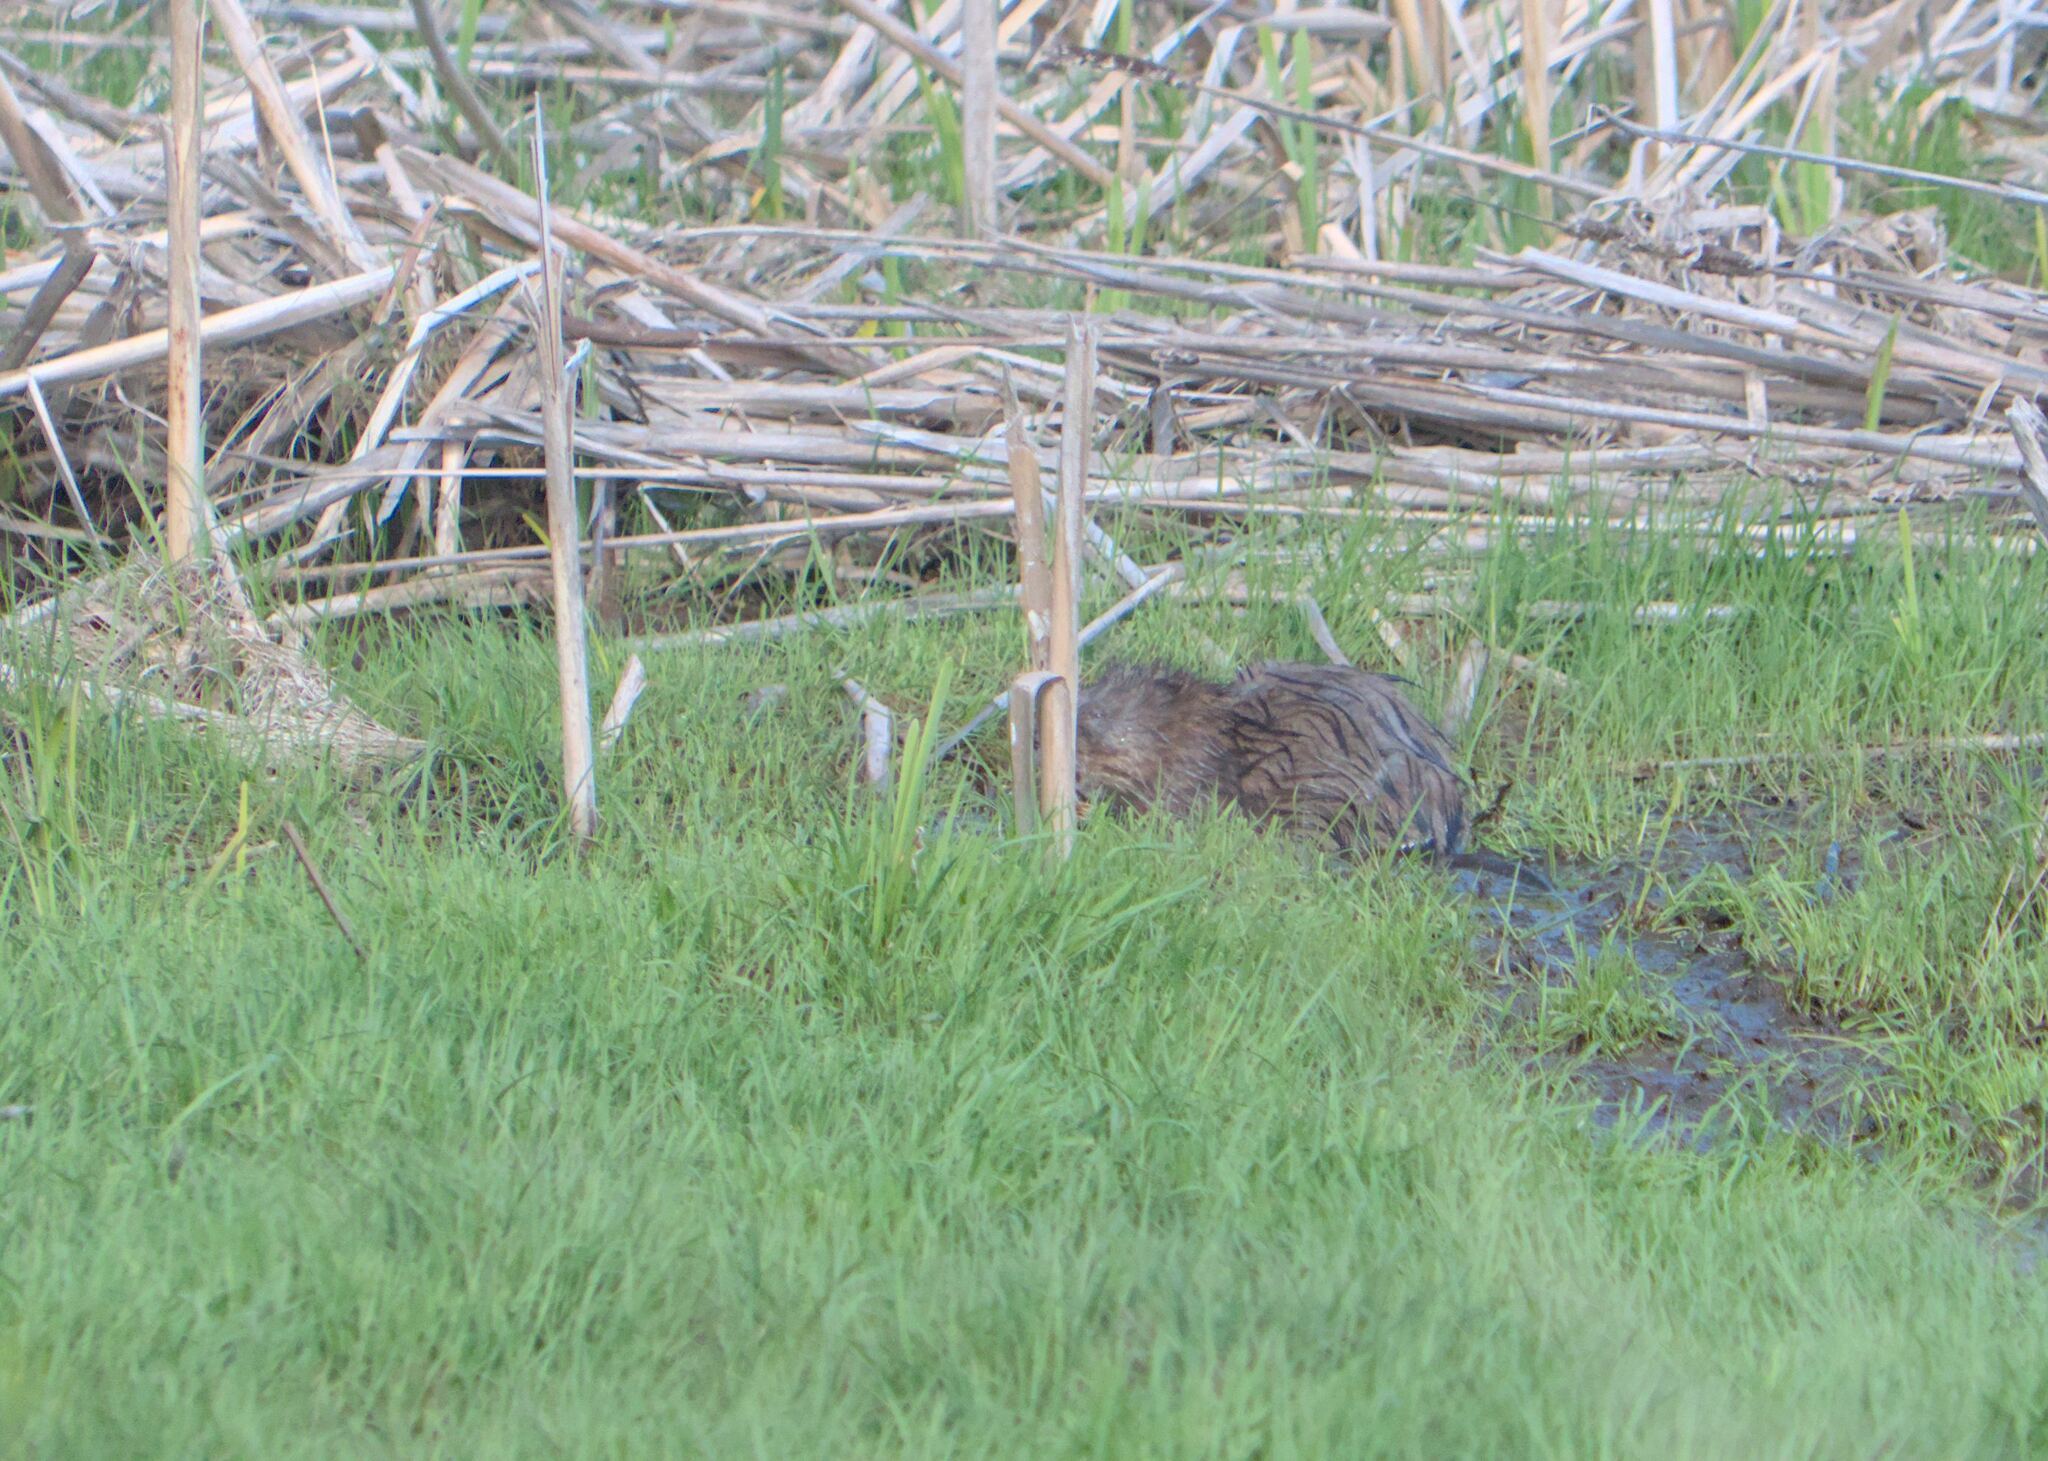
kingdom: Animalia
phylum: Chordata
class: Mammalia
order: Rodentia
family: Cricetidae
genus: Ondatra
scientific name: Ondatra zibethicus
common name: Muskrat
